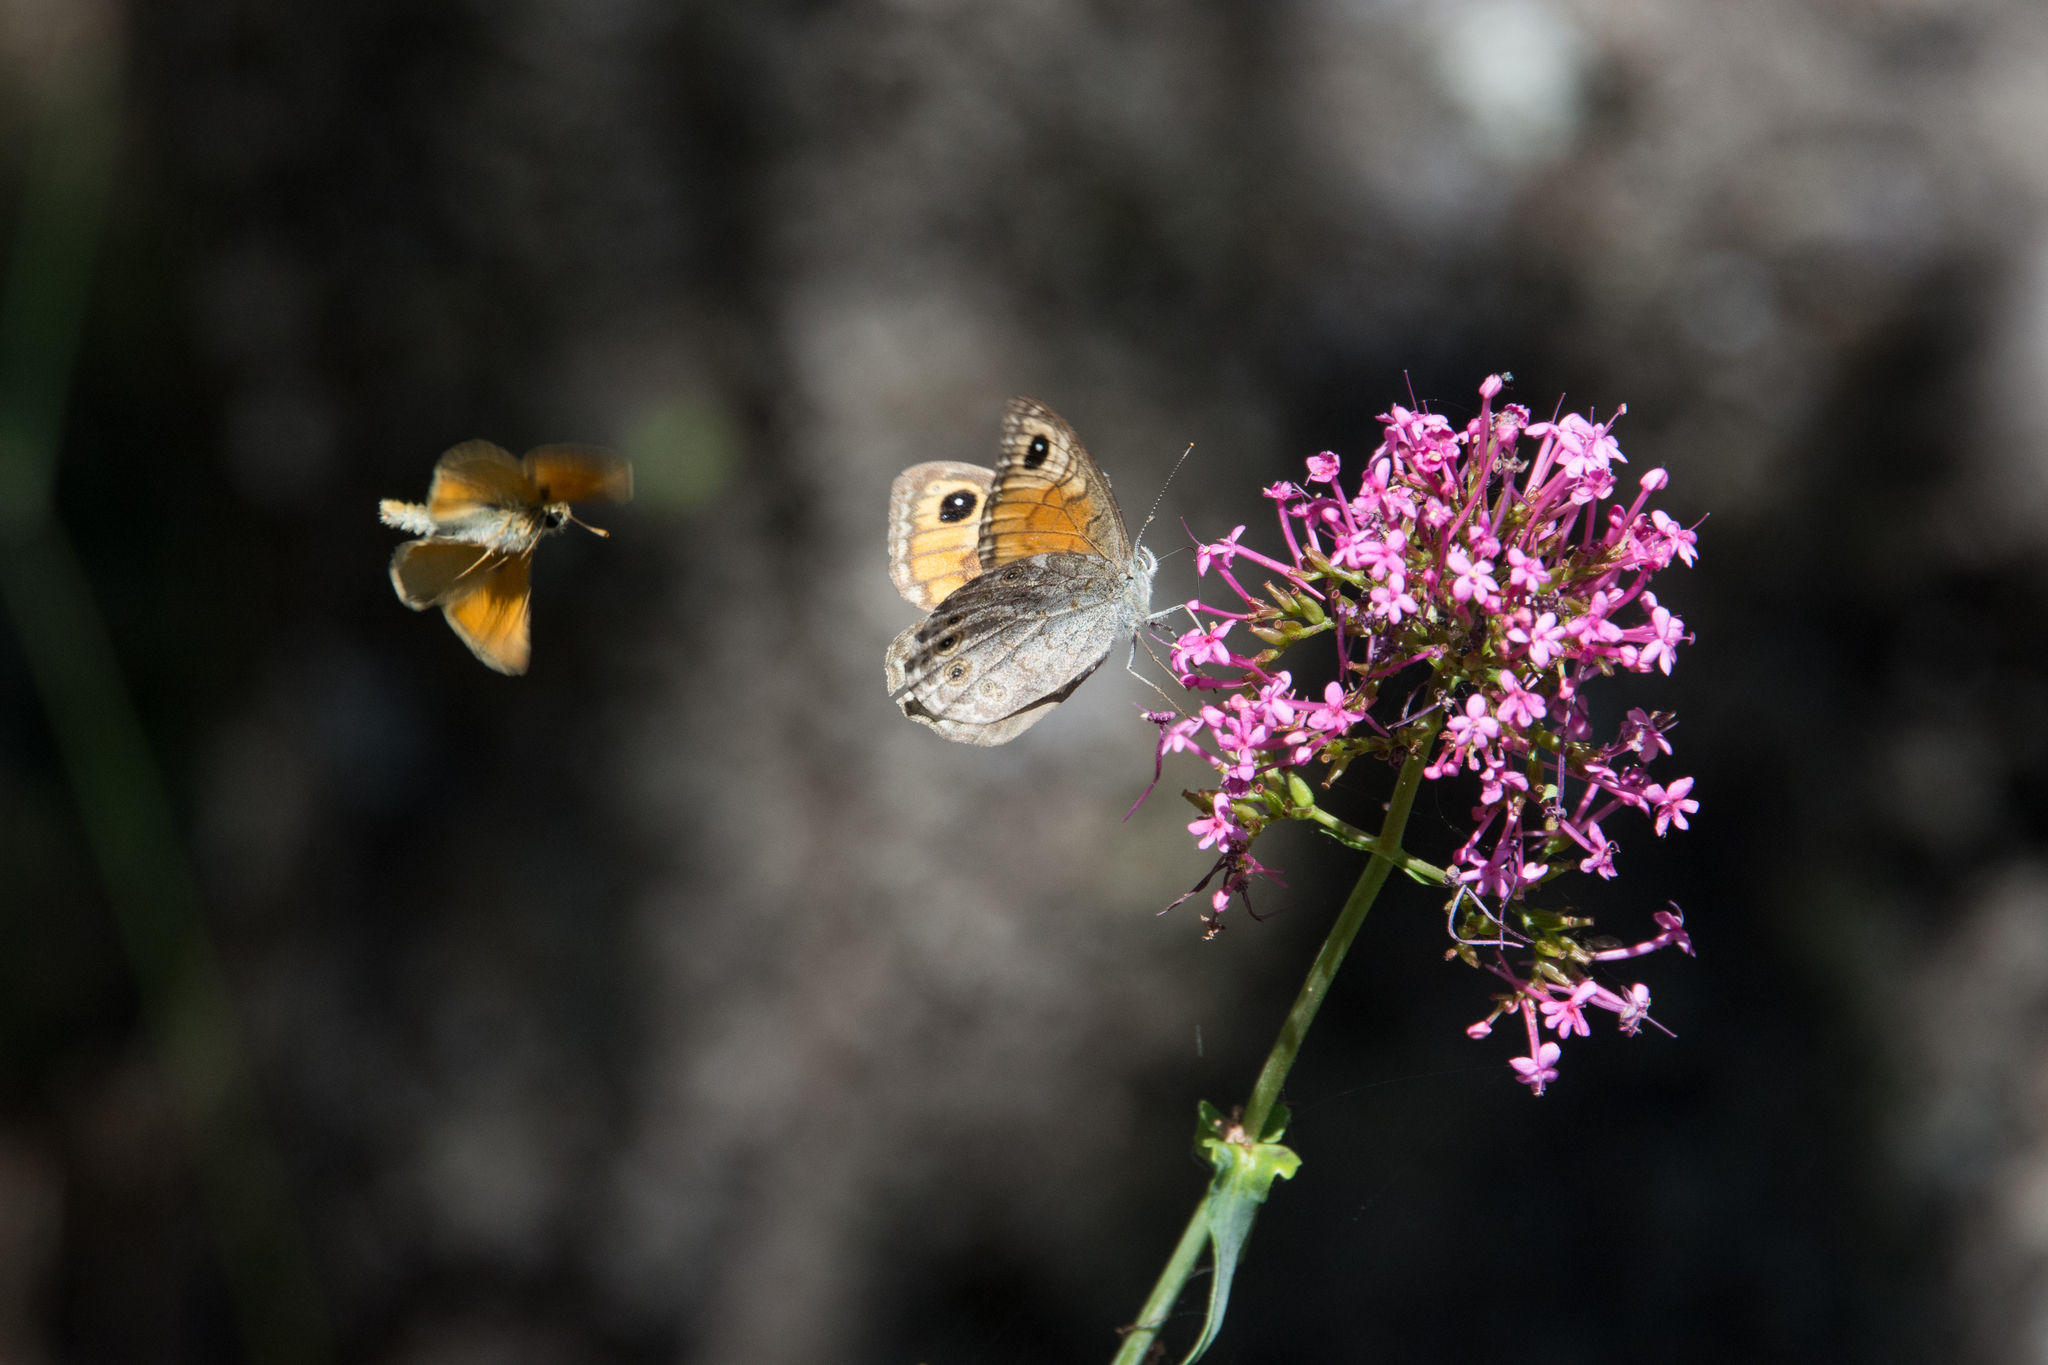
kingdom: Animalia
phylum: Arthropoda
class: Insecta
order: Lepidoptera
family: Nymphalidae
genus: Pararge
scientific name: Pararge Lasiommata maera
